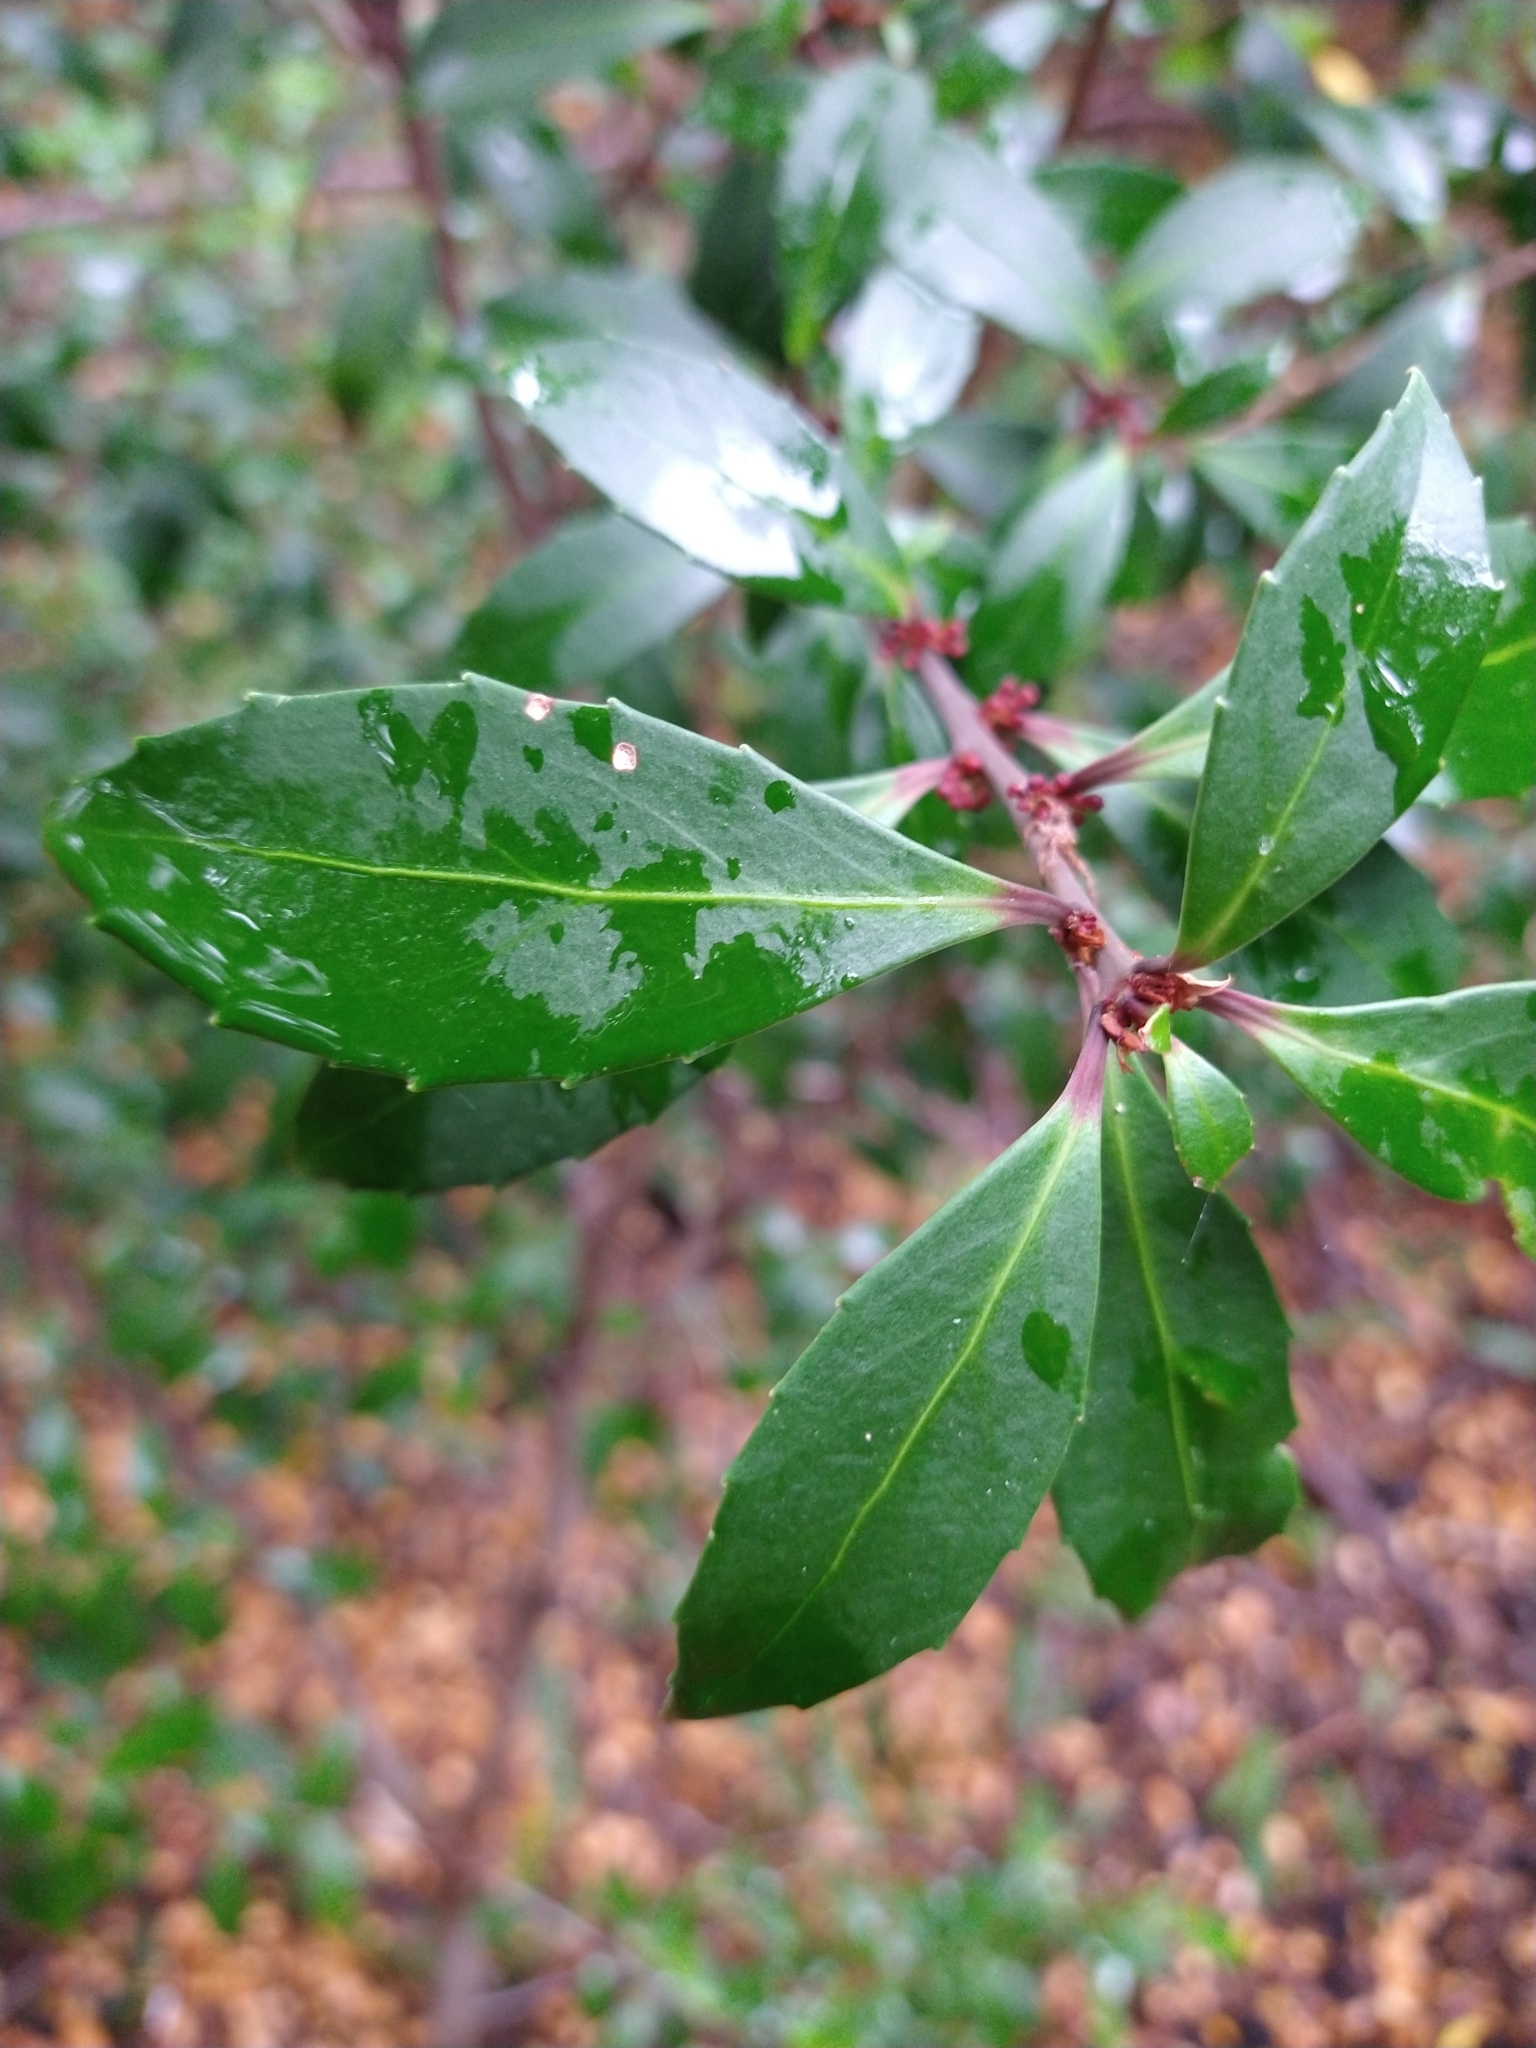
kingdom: Plantae
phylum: Tracheophyta
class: Magnoliopsida
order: Celastrales
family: Celastraceae
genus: Maytenus
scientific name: Maytenus magellanica
